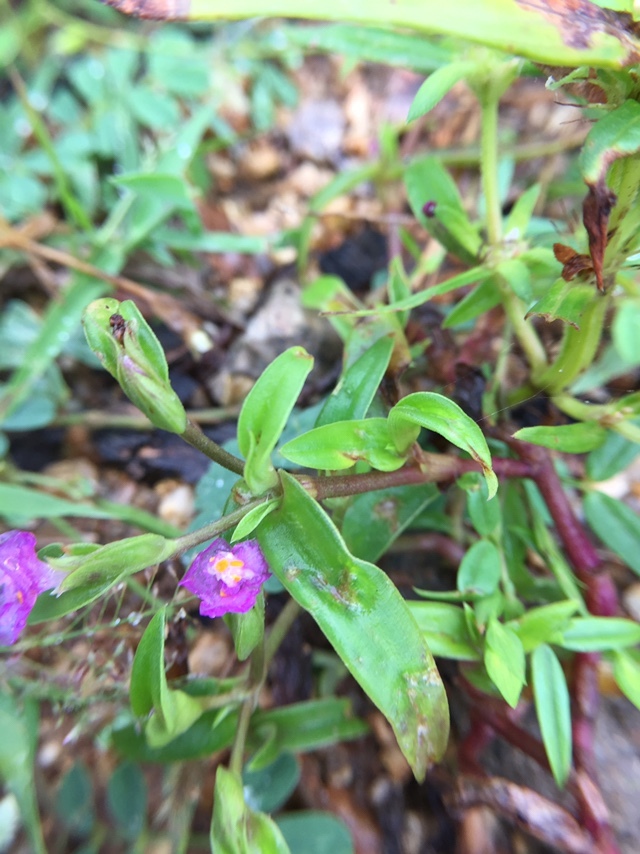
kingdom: Plantae
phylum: Tracheophyta
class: Liliopsida
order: Commelinales
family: Commelinaceae
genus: Cyanotis
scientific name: Cyanotis fasciculata
